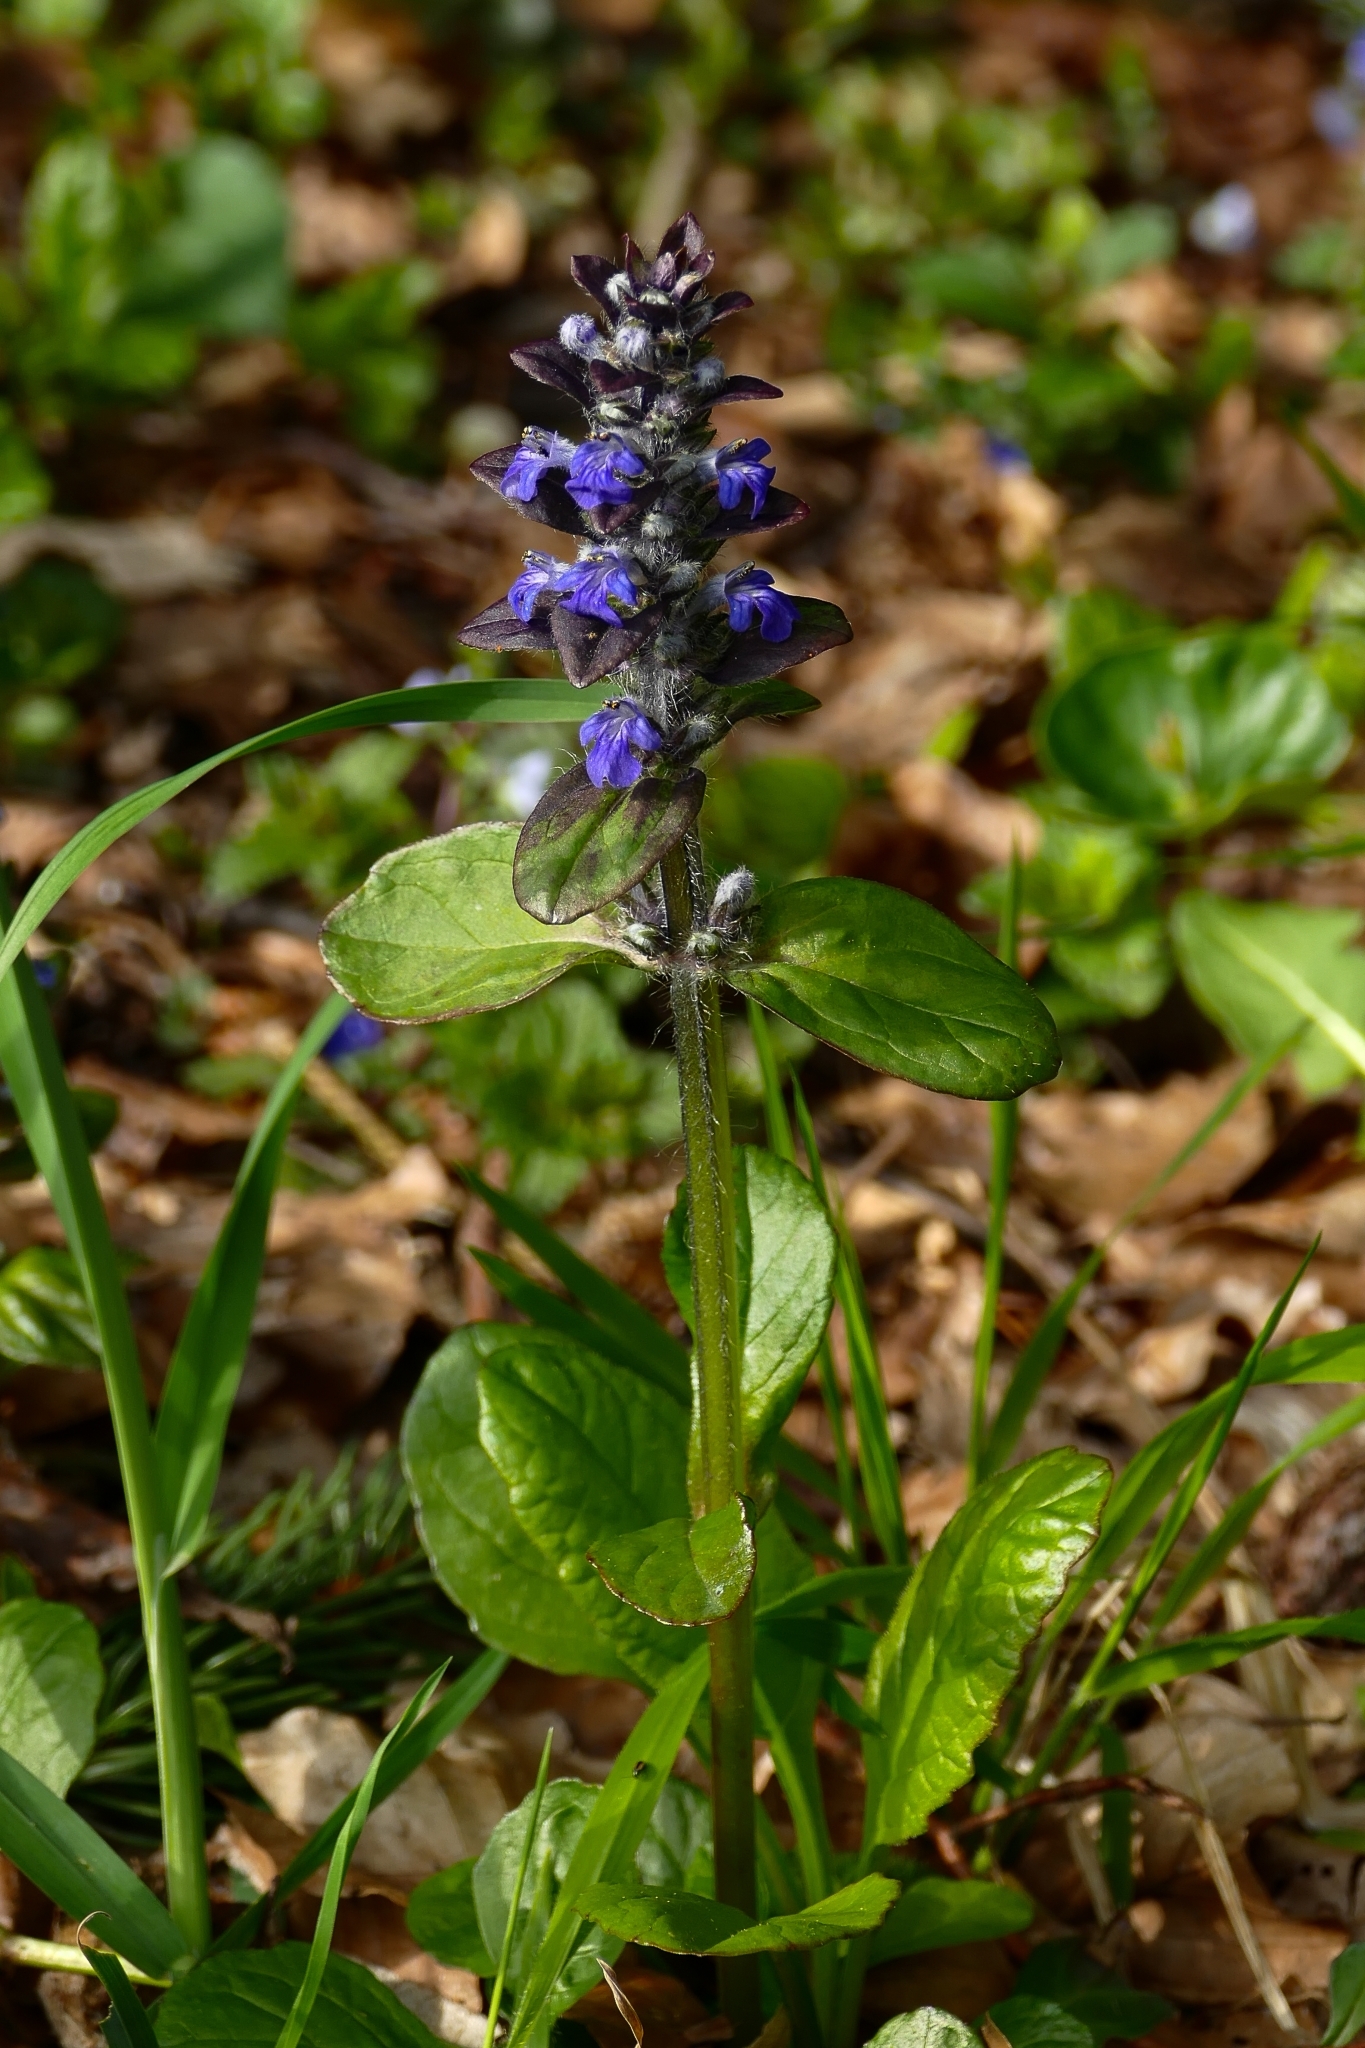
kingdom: Plantae
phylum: Tracheophyta
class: Magnoliopsida
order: Lamiales
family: Lamiaceae
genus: Ajuga
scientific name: Ajuga reptans
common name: Bugle
